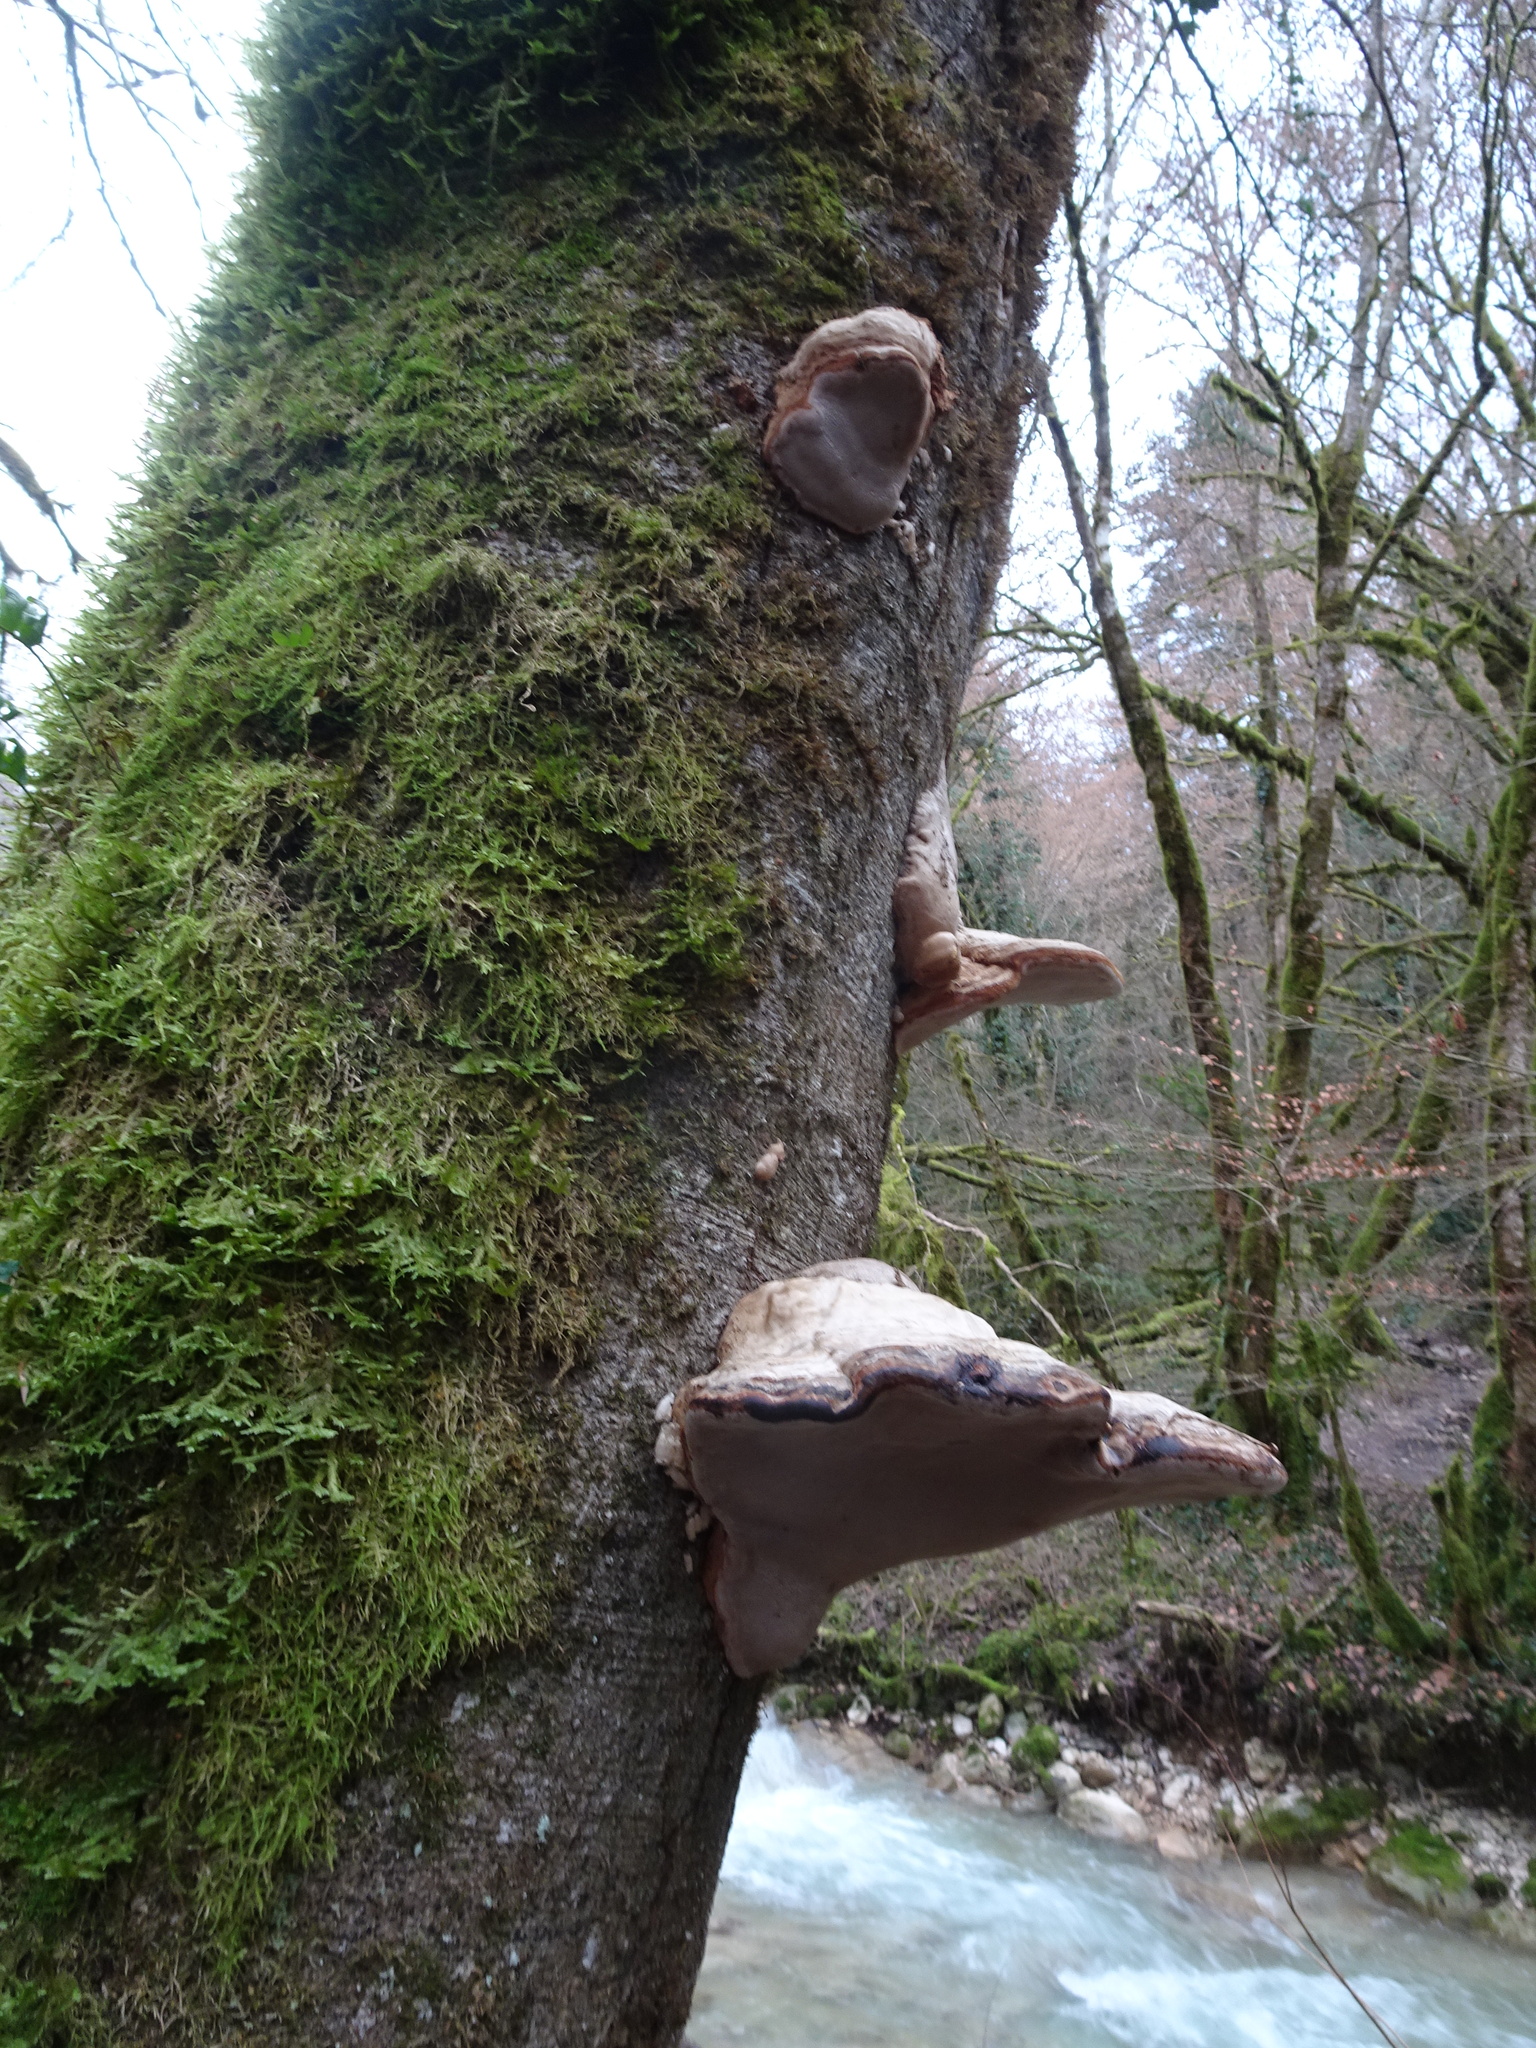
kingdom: Fungi
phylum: Basidiomycota
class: Agaricomycetes
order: Polyporales
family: Polyporaceae
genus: Fomes
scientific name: Fomes fomentarius
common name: Hoof fungus
